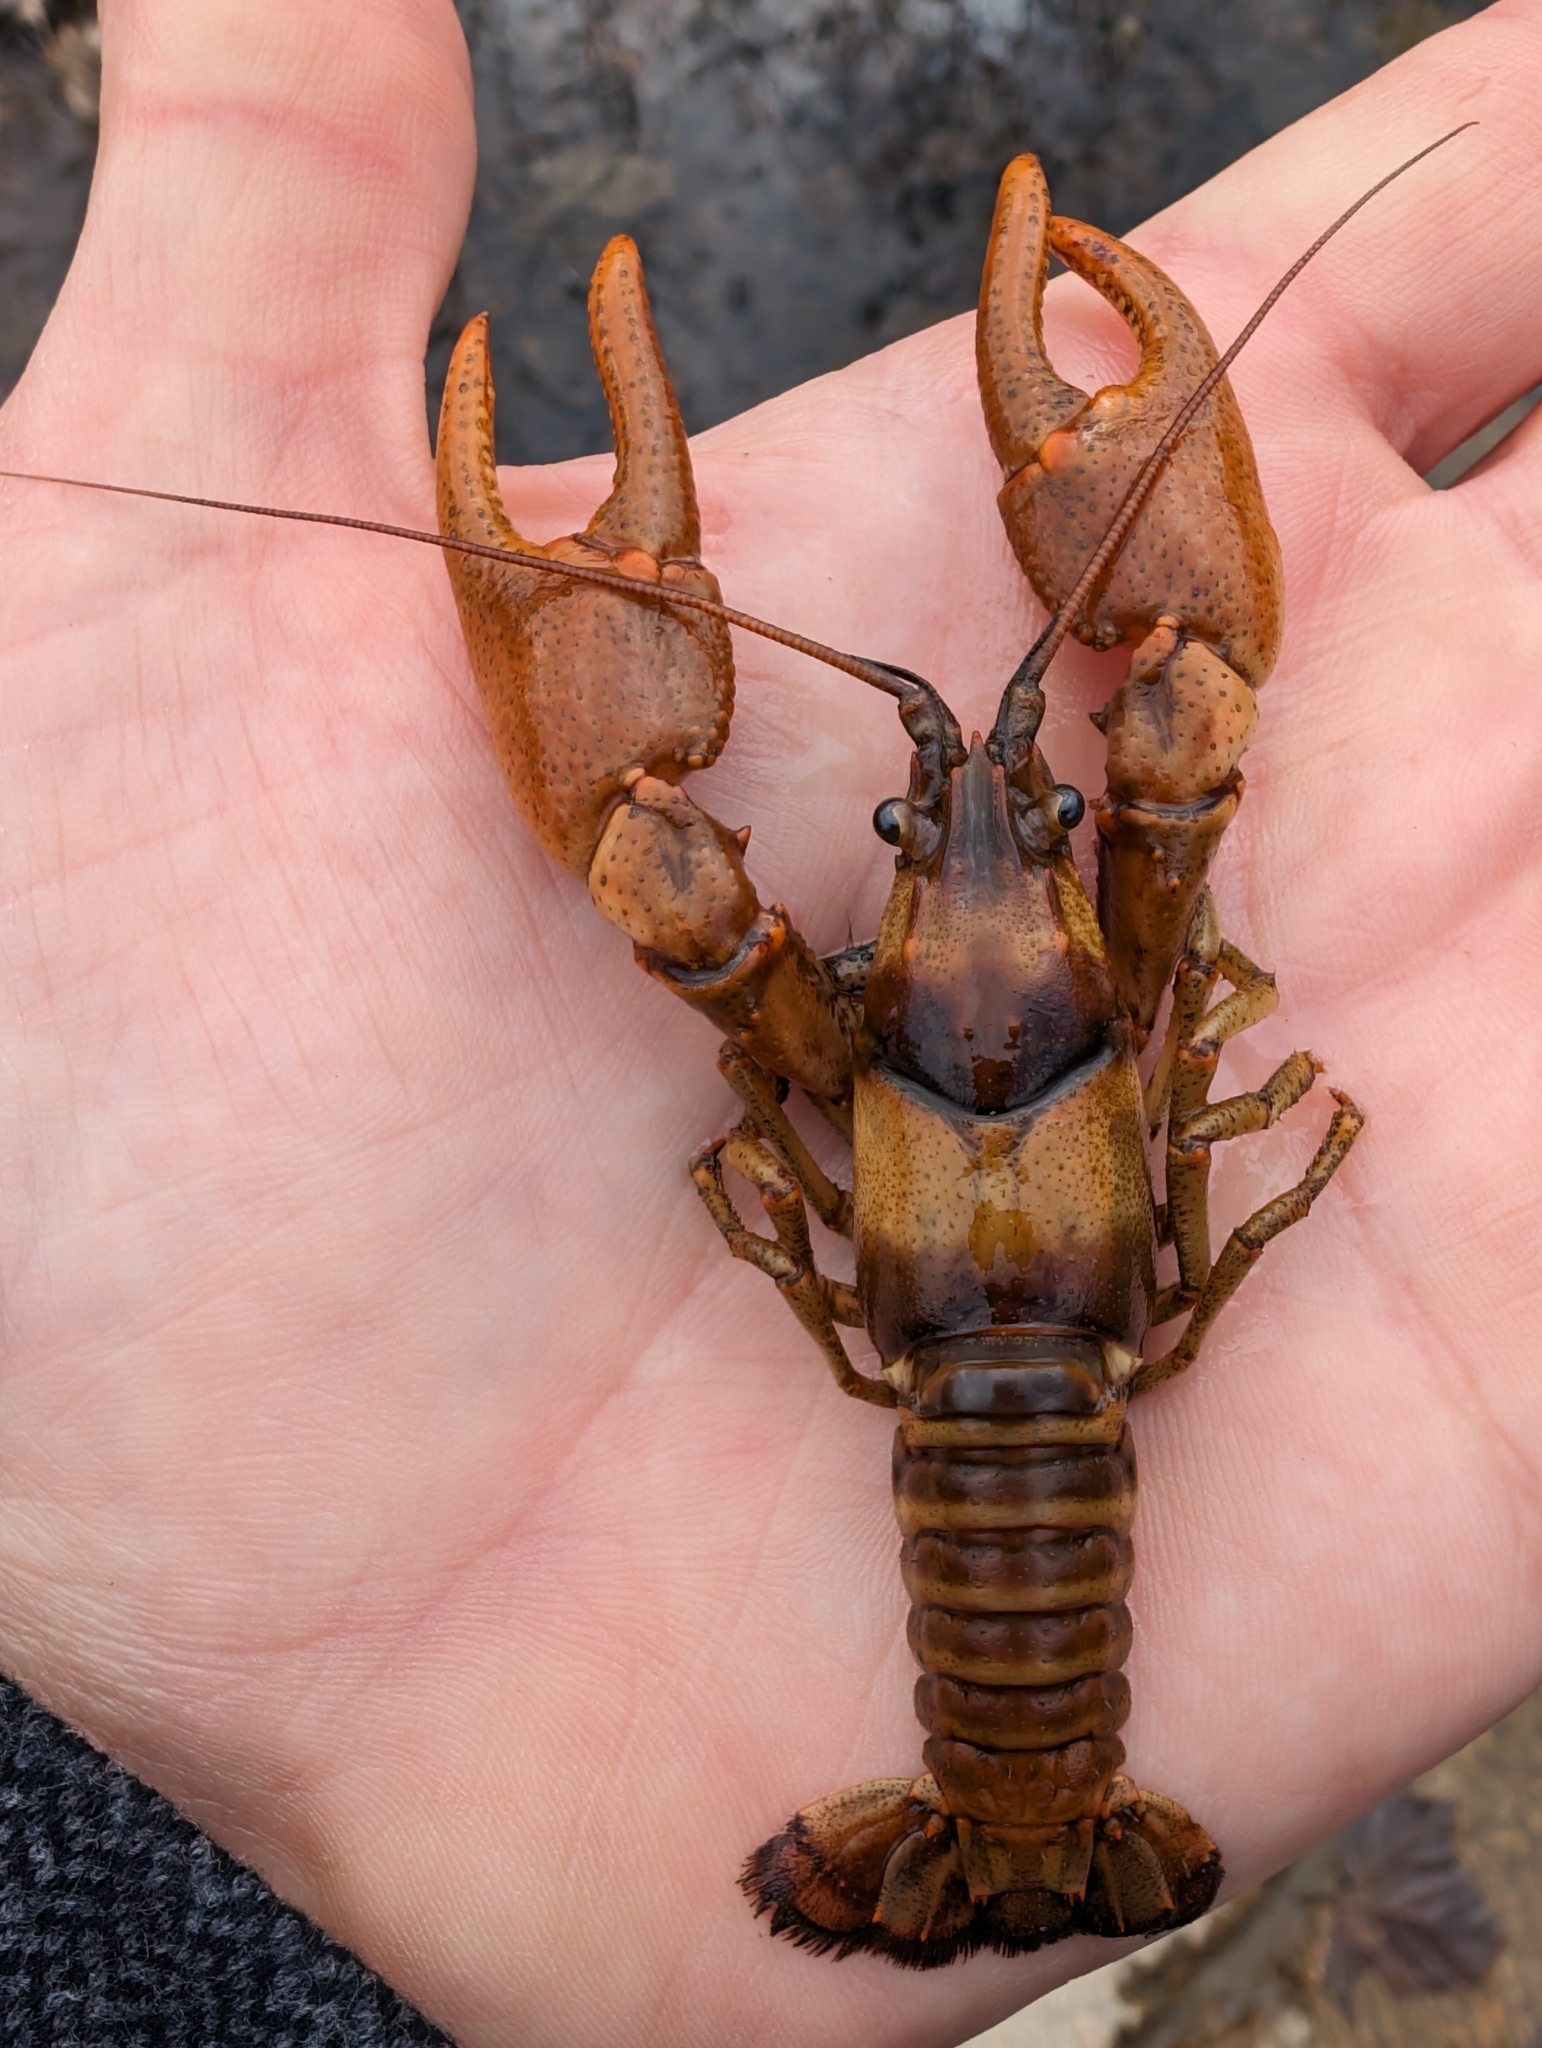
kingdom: Animalia
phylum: Arthropoda
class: Malacostraca
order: Decapoda
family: Cambaridae
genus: Faxonius
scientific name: Faxonius luteus
